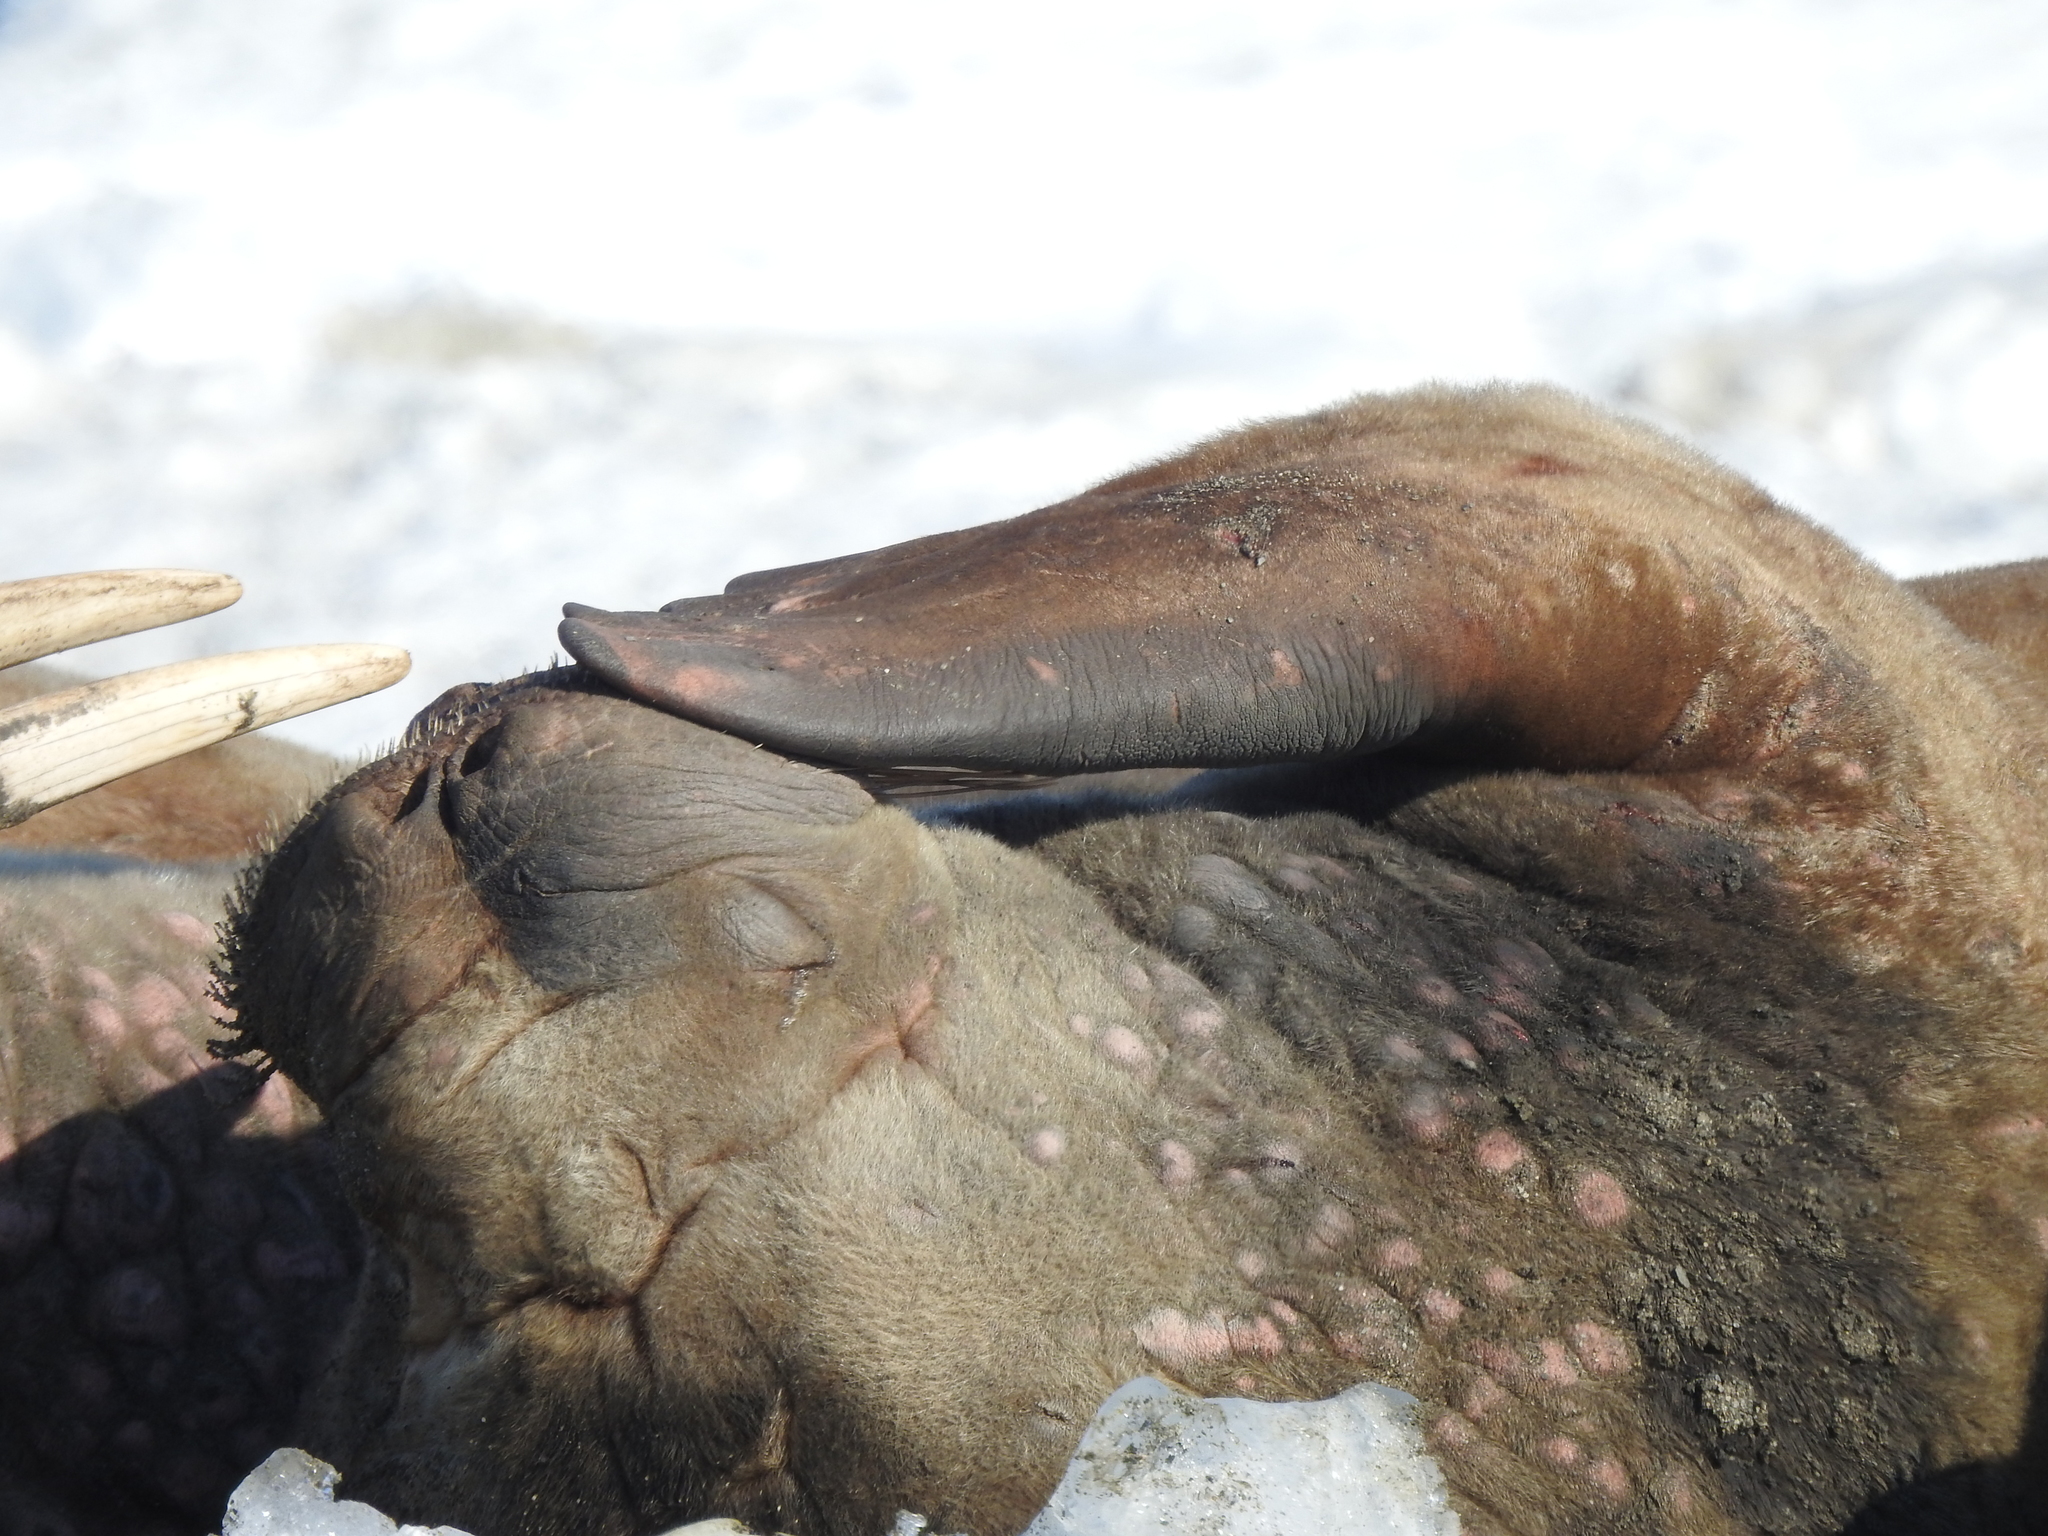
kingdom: Animalia
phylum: Chordata
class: Mammalia
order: Carnivora
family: Odobenidae
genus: Odobenus
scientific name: Odobenus rosmarus
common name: Walrus
